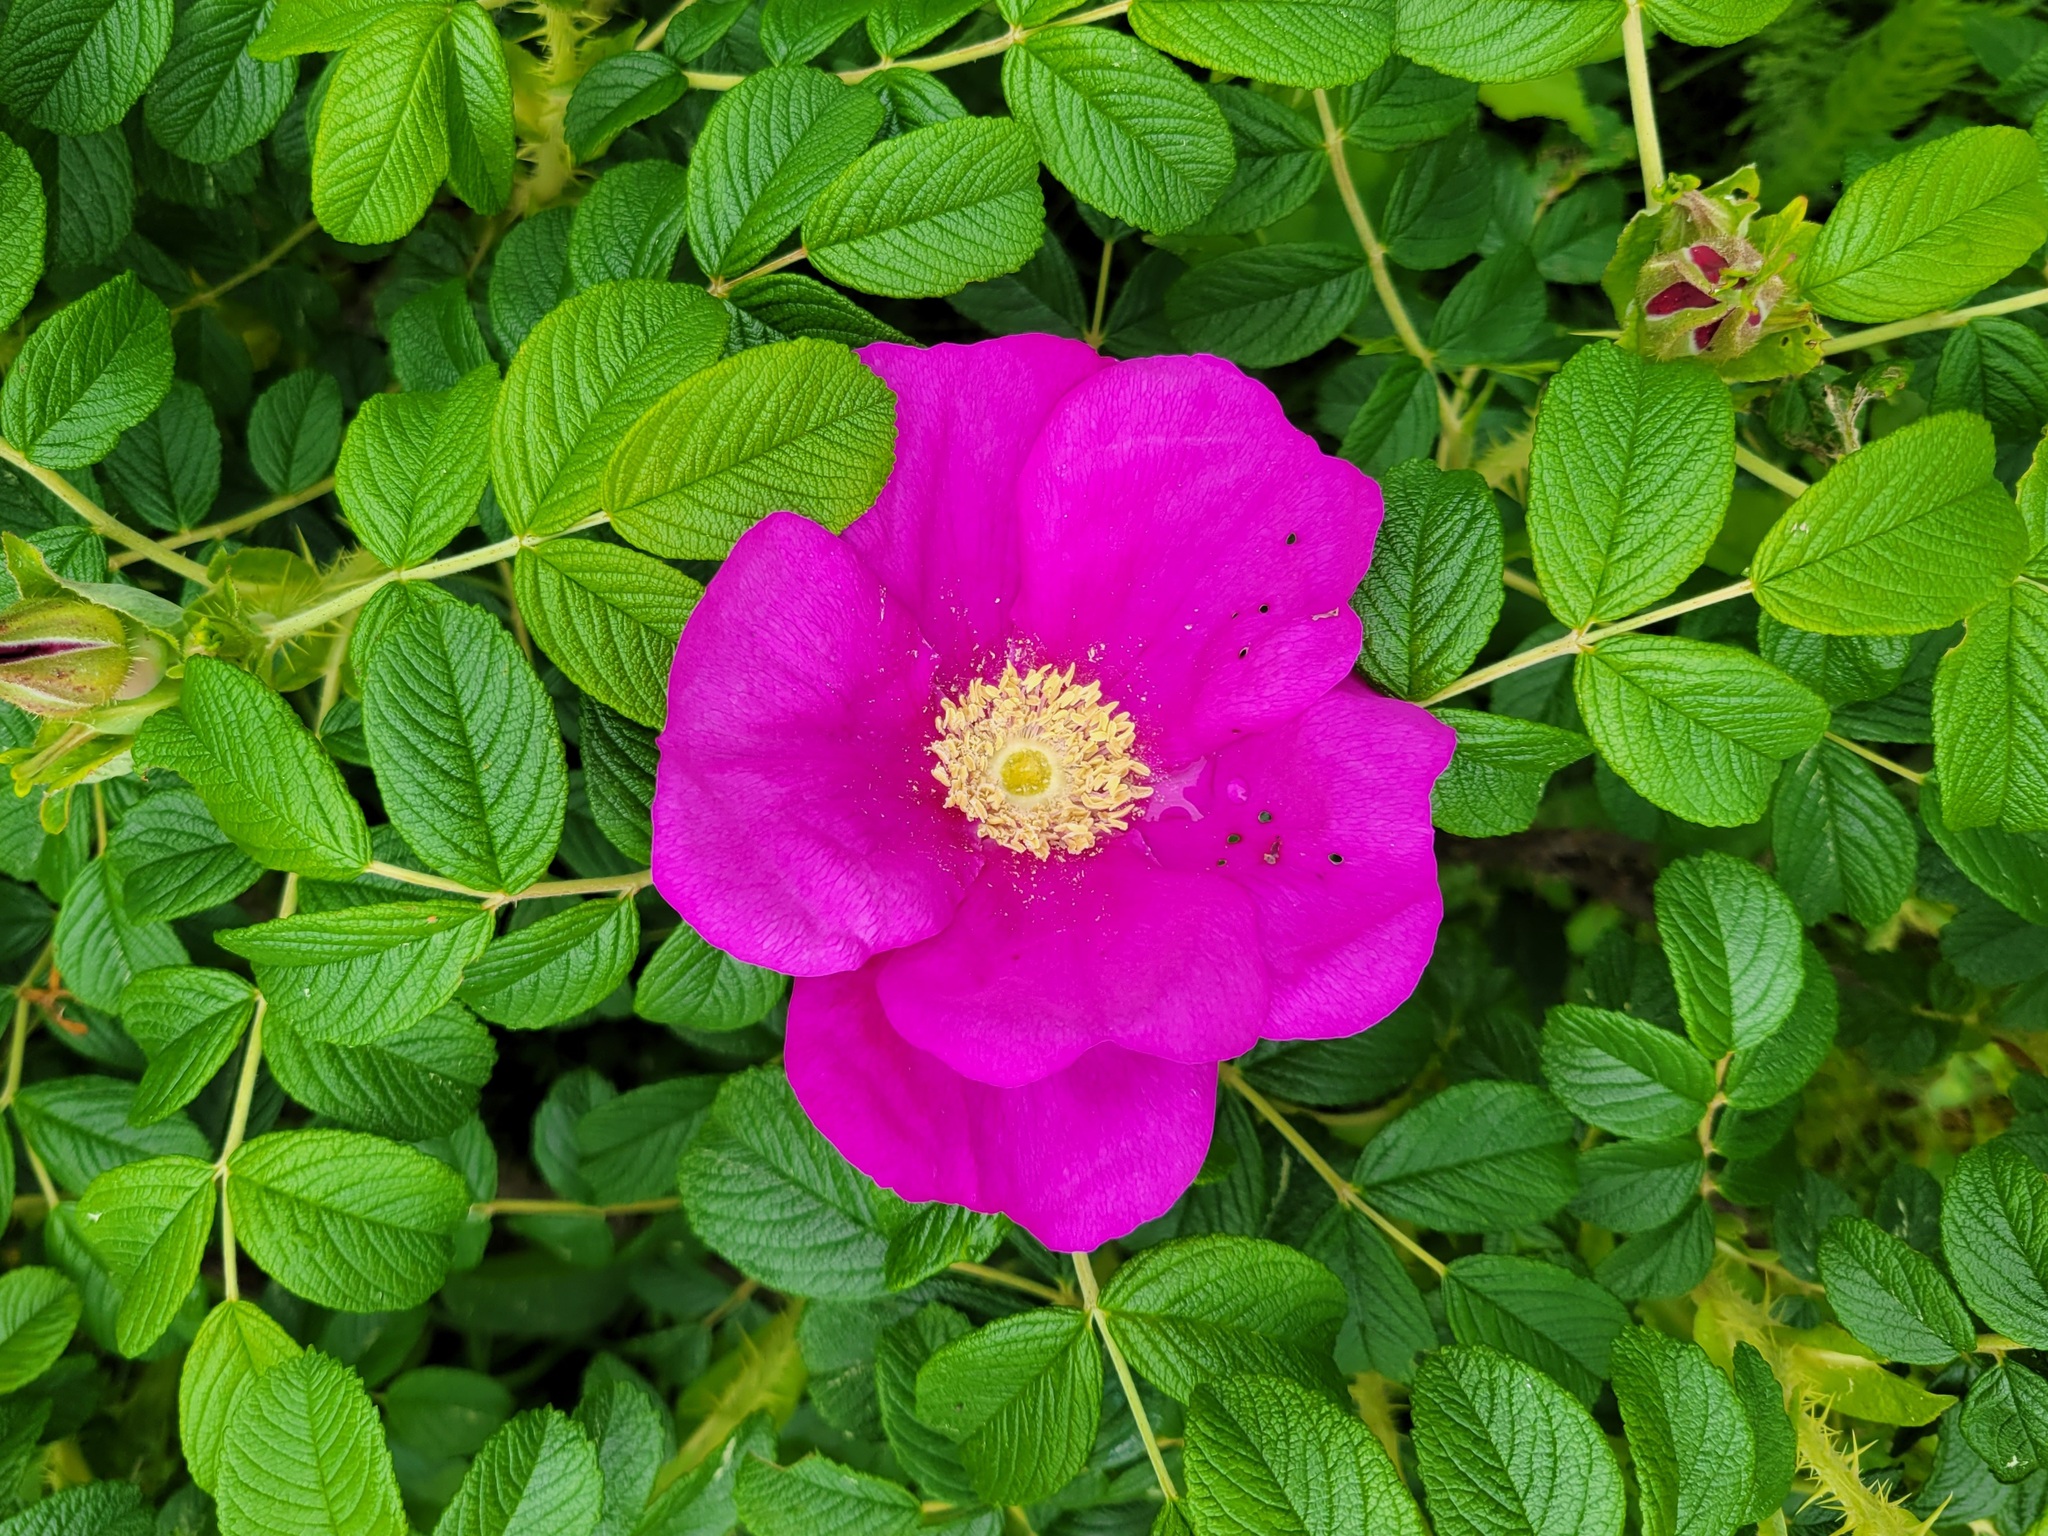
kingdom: Plantae
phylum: Tracheophyta
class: Magnoliopsida
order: Rosales
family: Rosaceae
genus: Rosa
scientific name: Rosa rugosa
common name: Japanese rose
